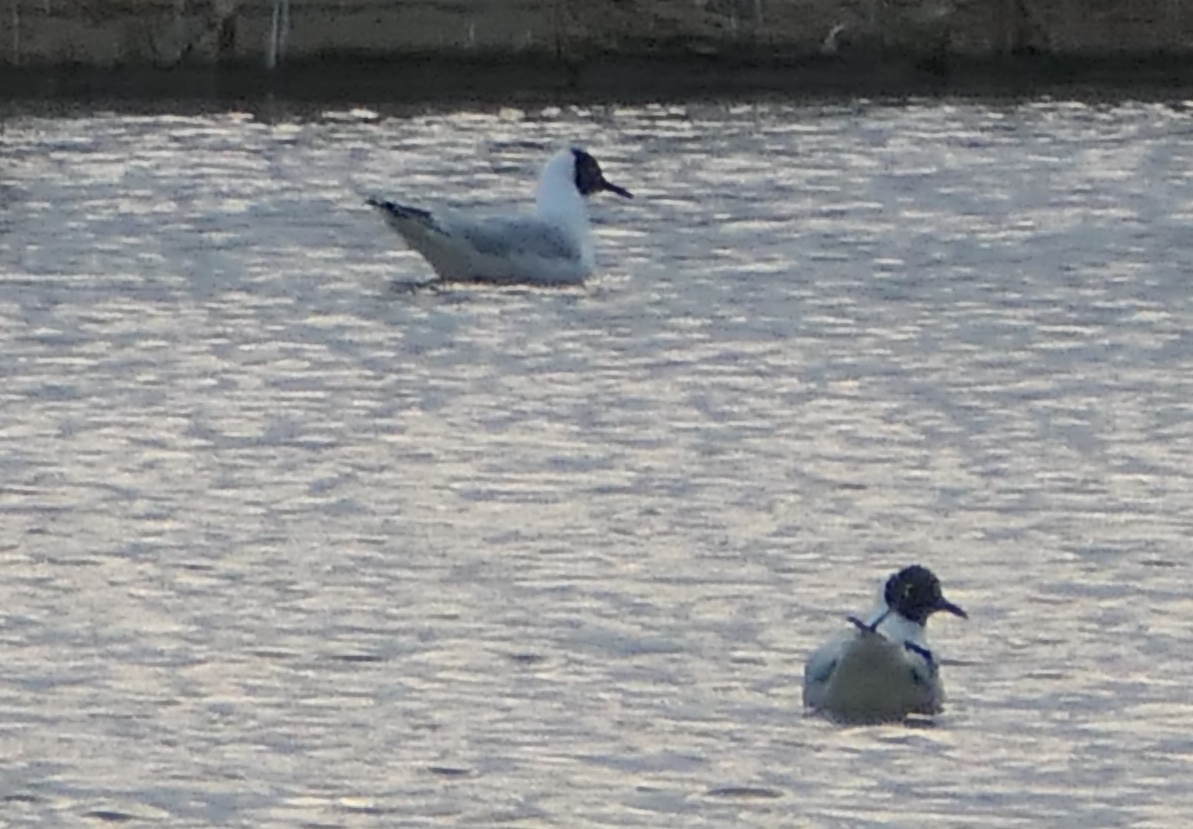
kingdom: Animalia
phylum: Chordata
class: Aves
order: Charadriiformes
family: Laridae
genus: Chroicocephalus
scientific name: Chroicocephalus ridibundus
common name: Black-headed gull
